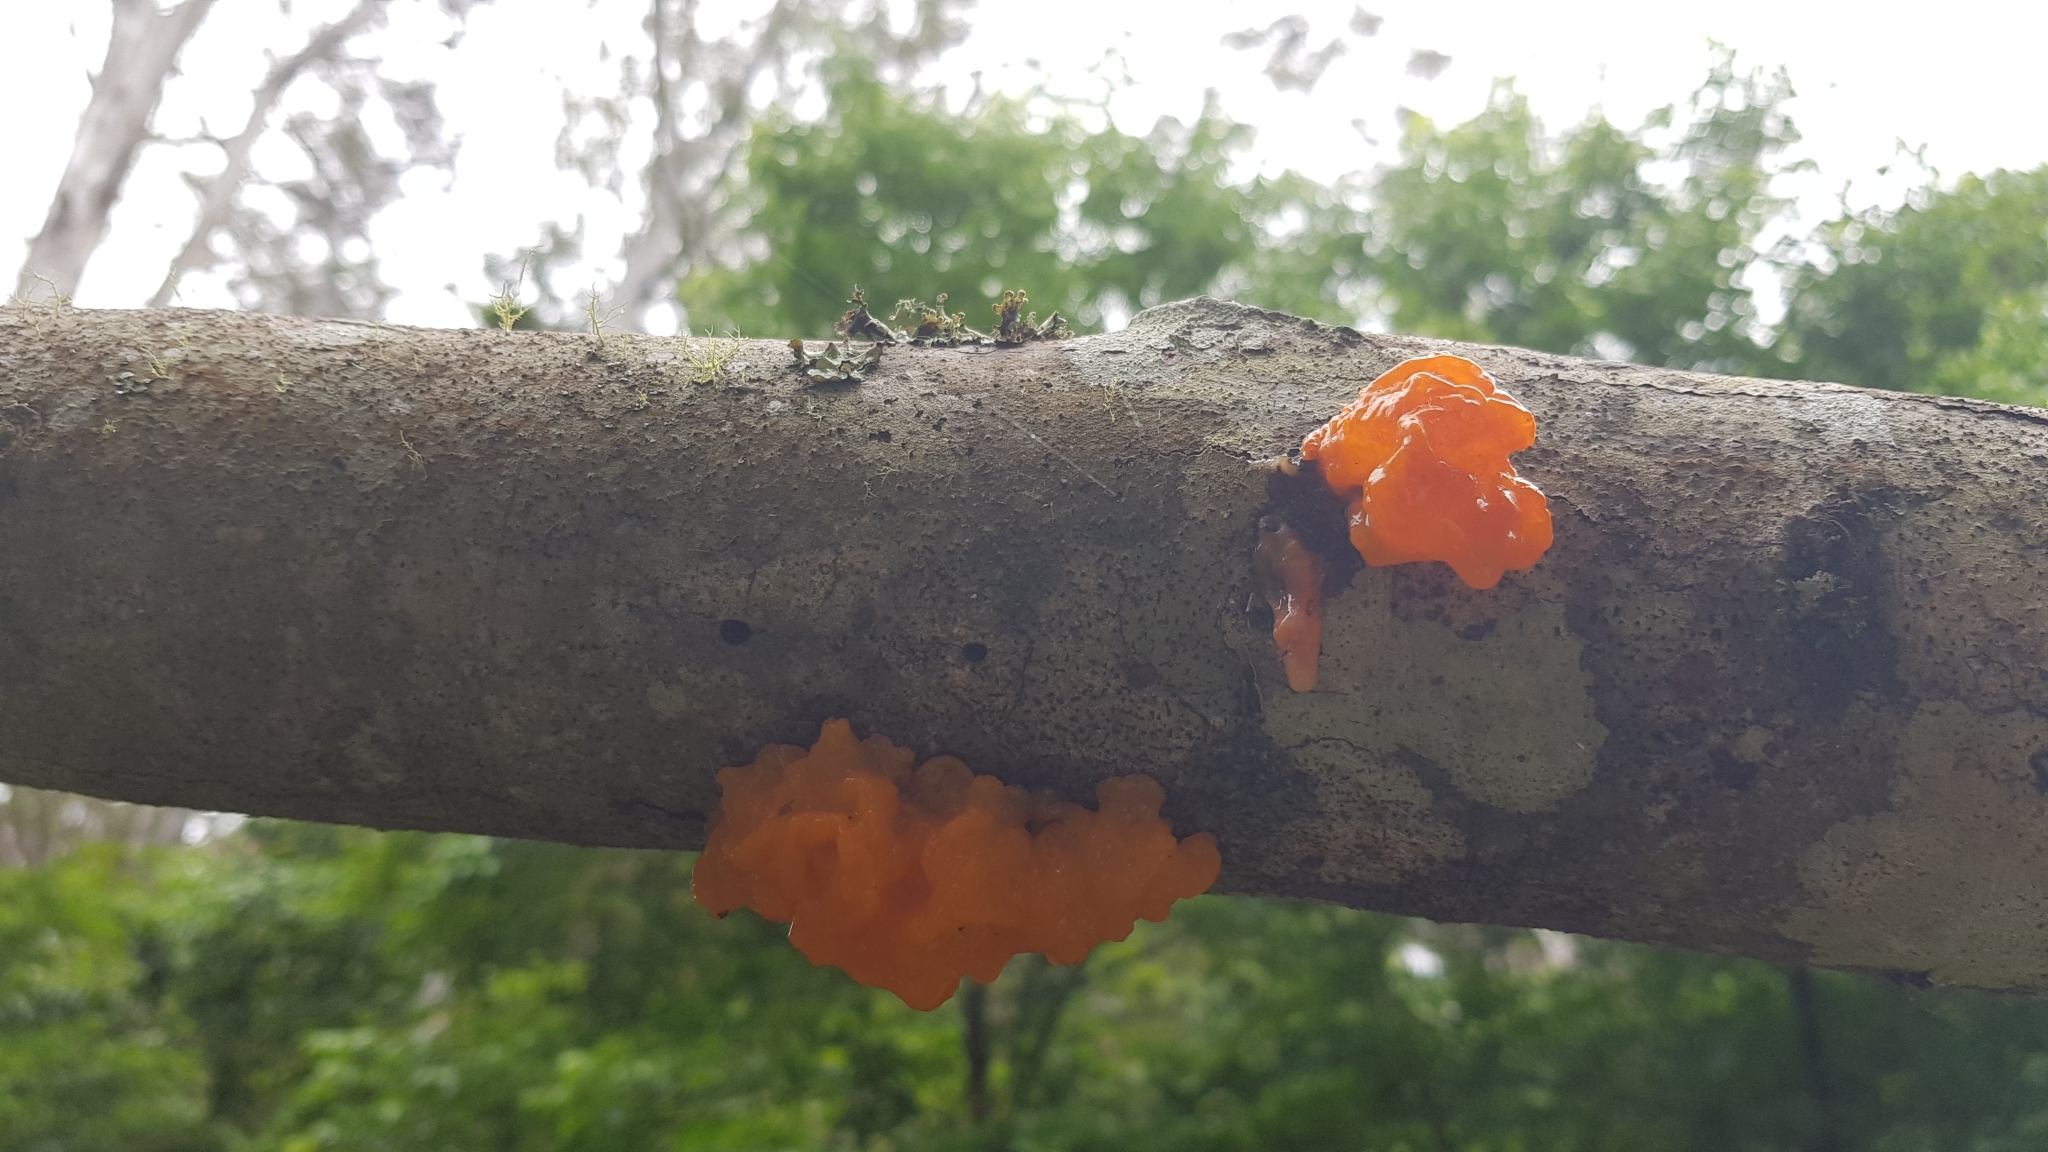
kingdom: Fungi
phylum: Basidiomycota
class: Tremellomycetes
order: Tremellales
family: Tremellaceae
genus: Tremella
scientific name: Tremella mesenterica
